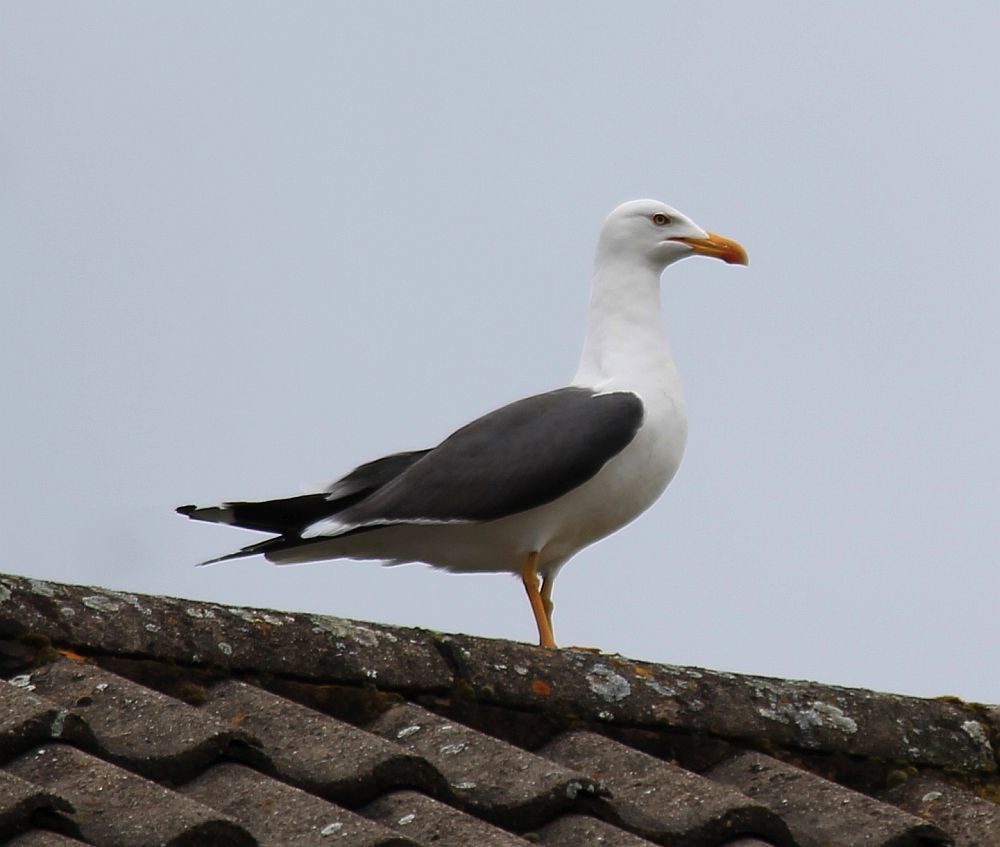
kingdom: Animalia
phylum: Chordata
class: Aves
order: Charadriiformes
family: Laridae
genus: Larus
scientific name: Larus fuscus
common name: Lesser black-backed gull
